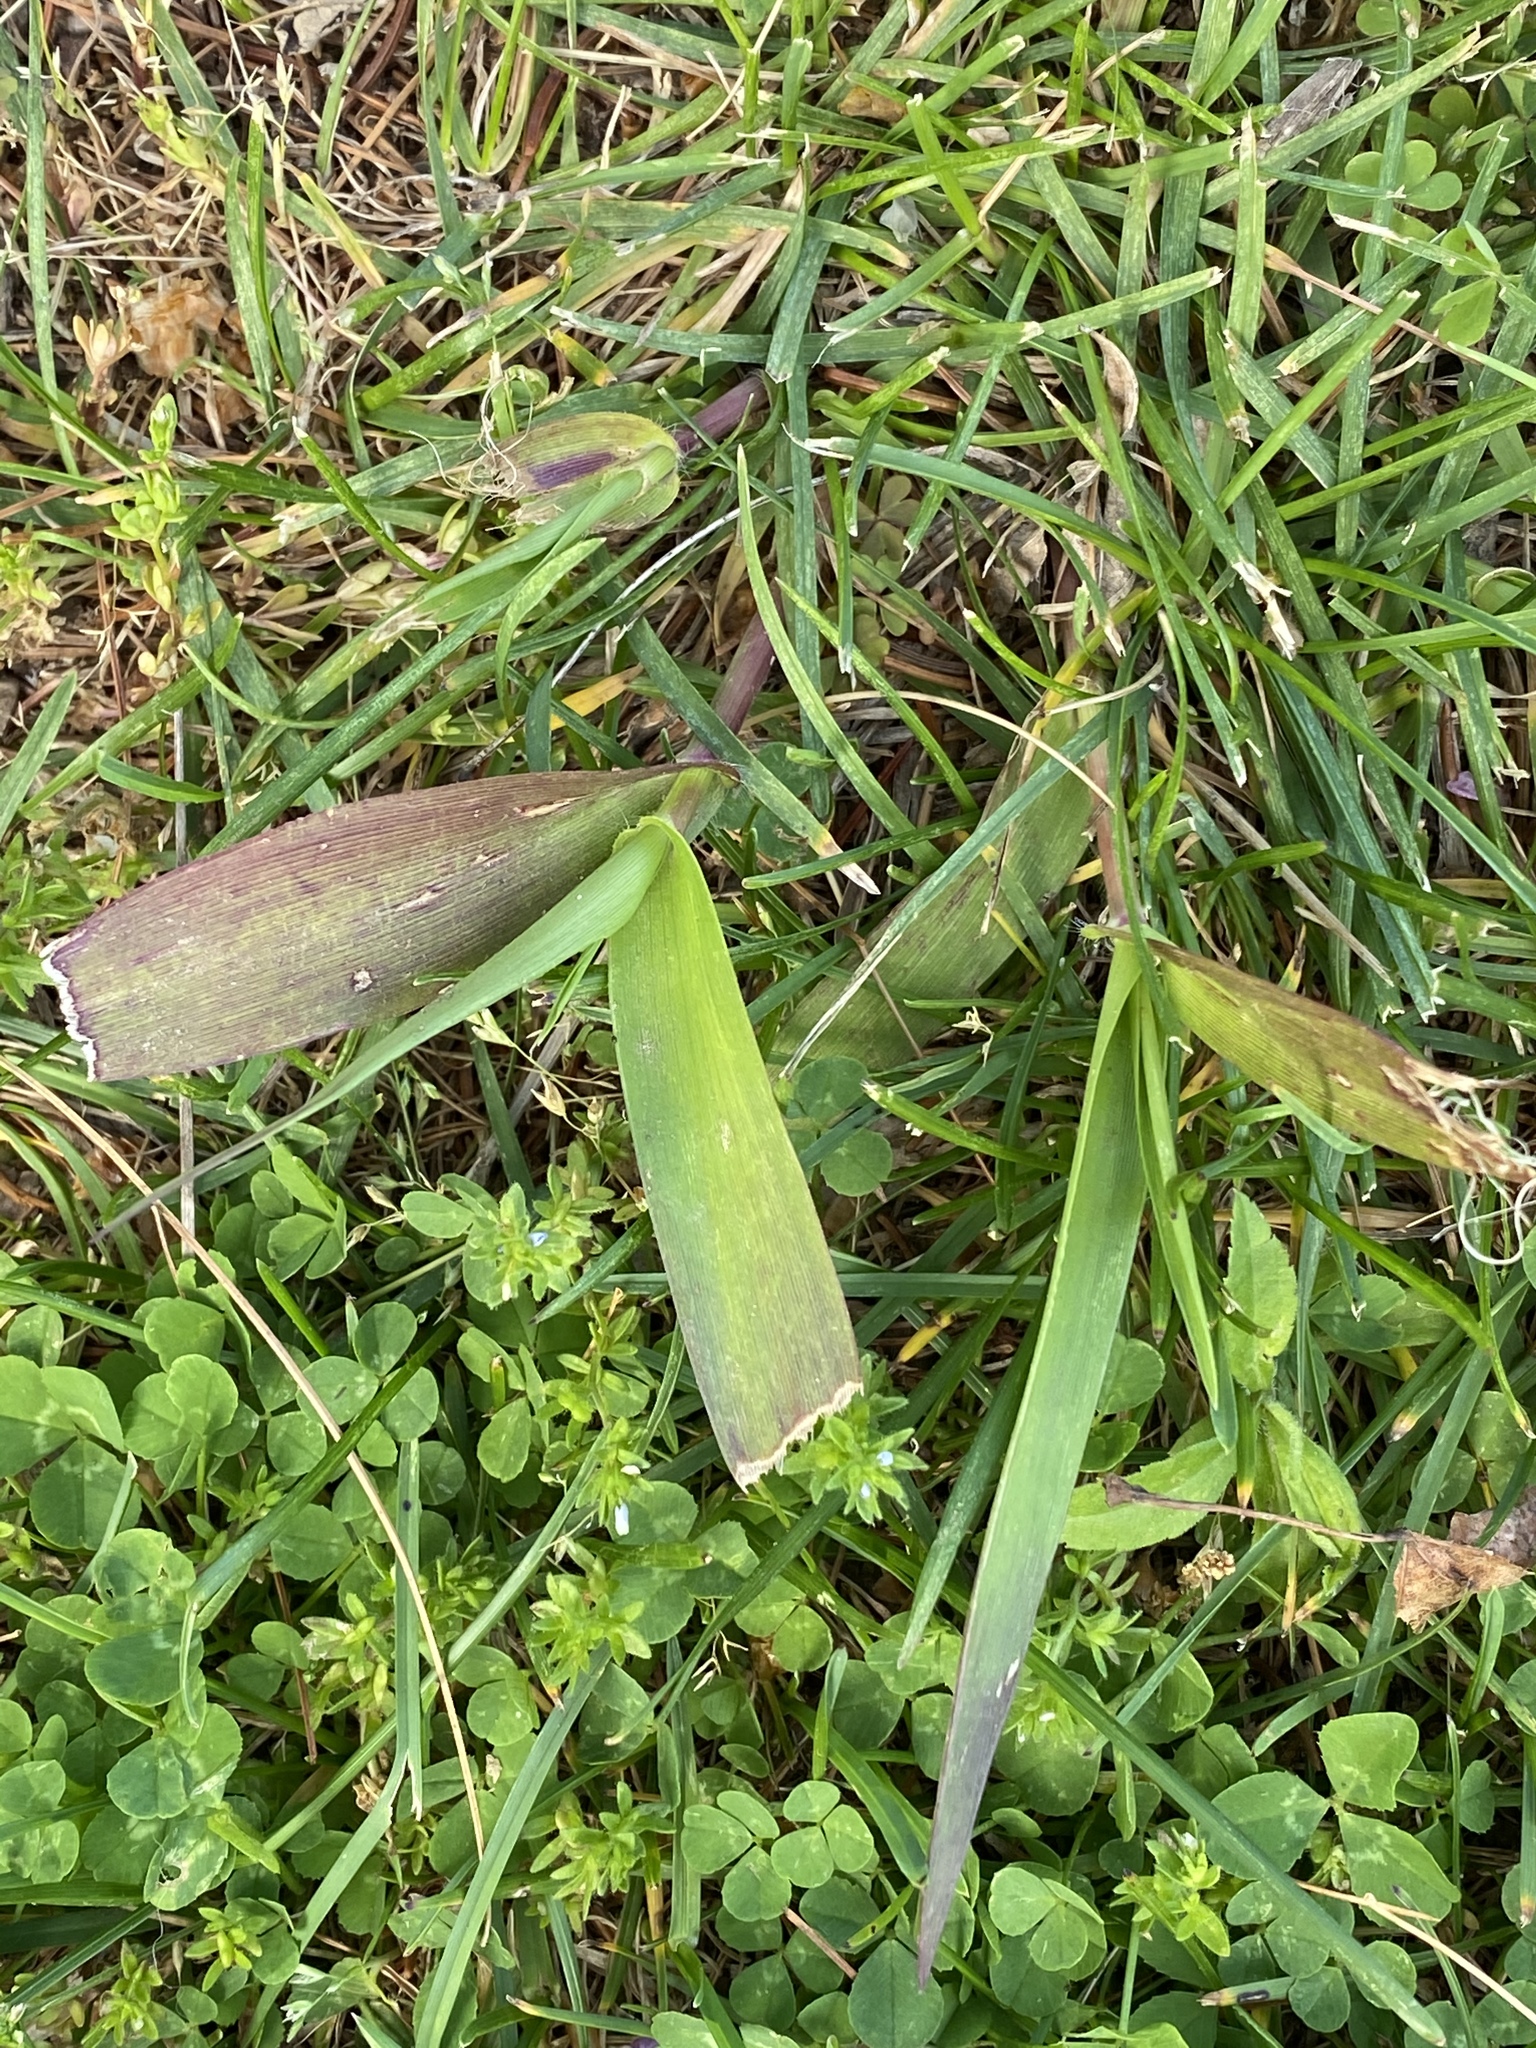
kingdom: Plantae
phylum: Tracheophyta
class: Liliopsida
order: Poales
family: Poaceae
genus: Dichanthelium
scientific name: Dichanthelium clandestinum
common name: Deer-tongue grass
